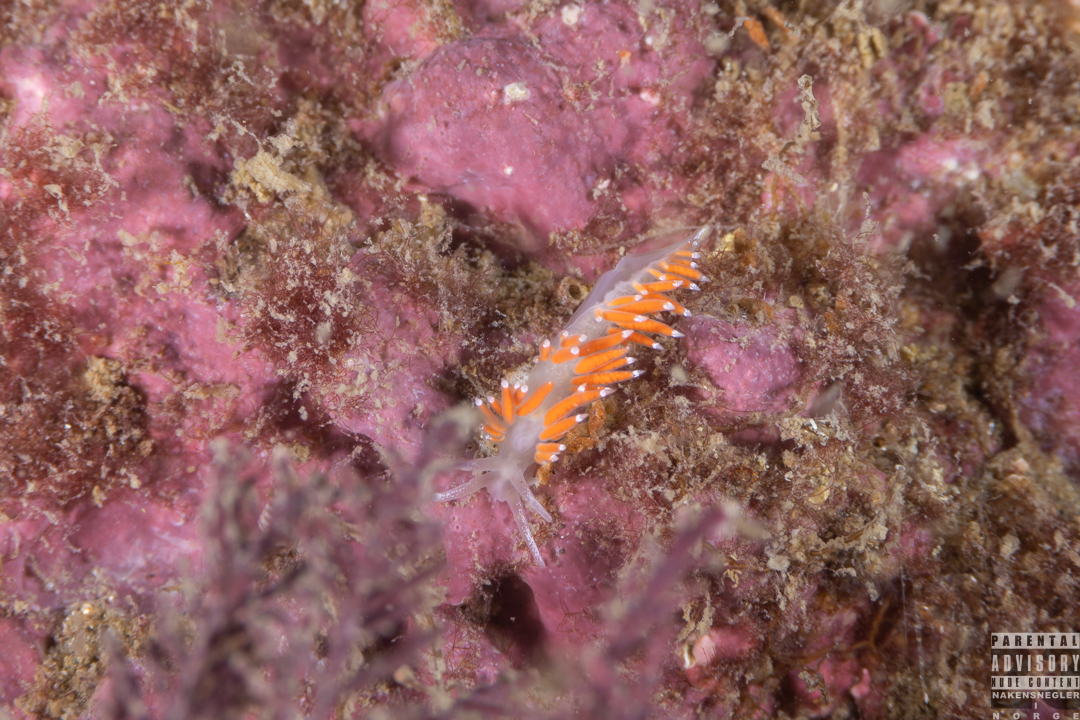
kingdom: Animalia
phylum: Mollusca
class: Gastropoda
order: Nudibranchia
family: Coryphellidae
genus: Coryphella
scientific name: Coryphella gracilis
